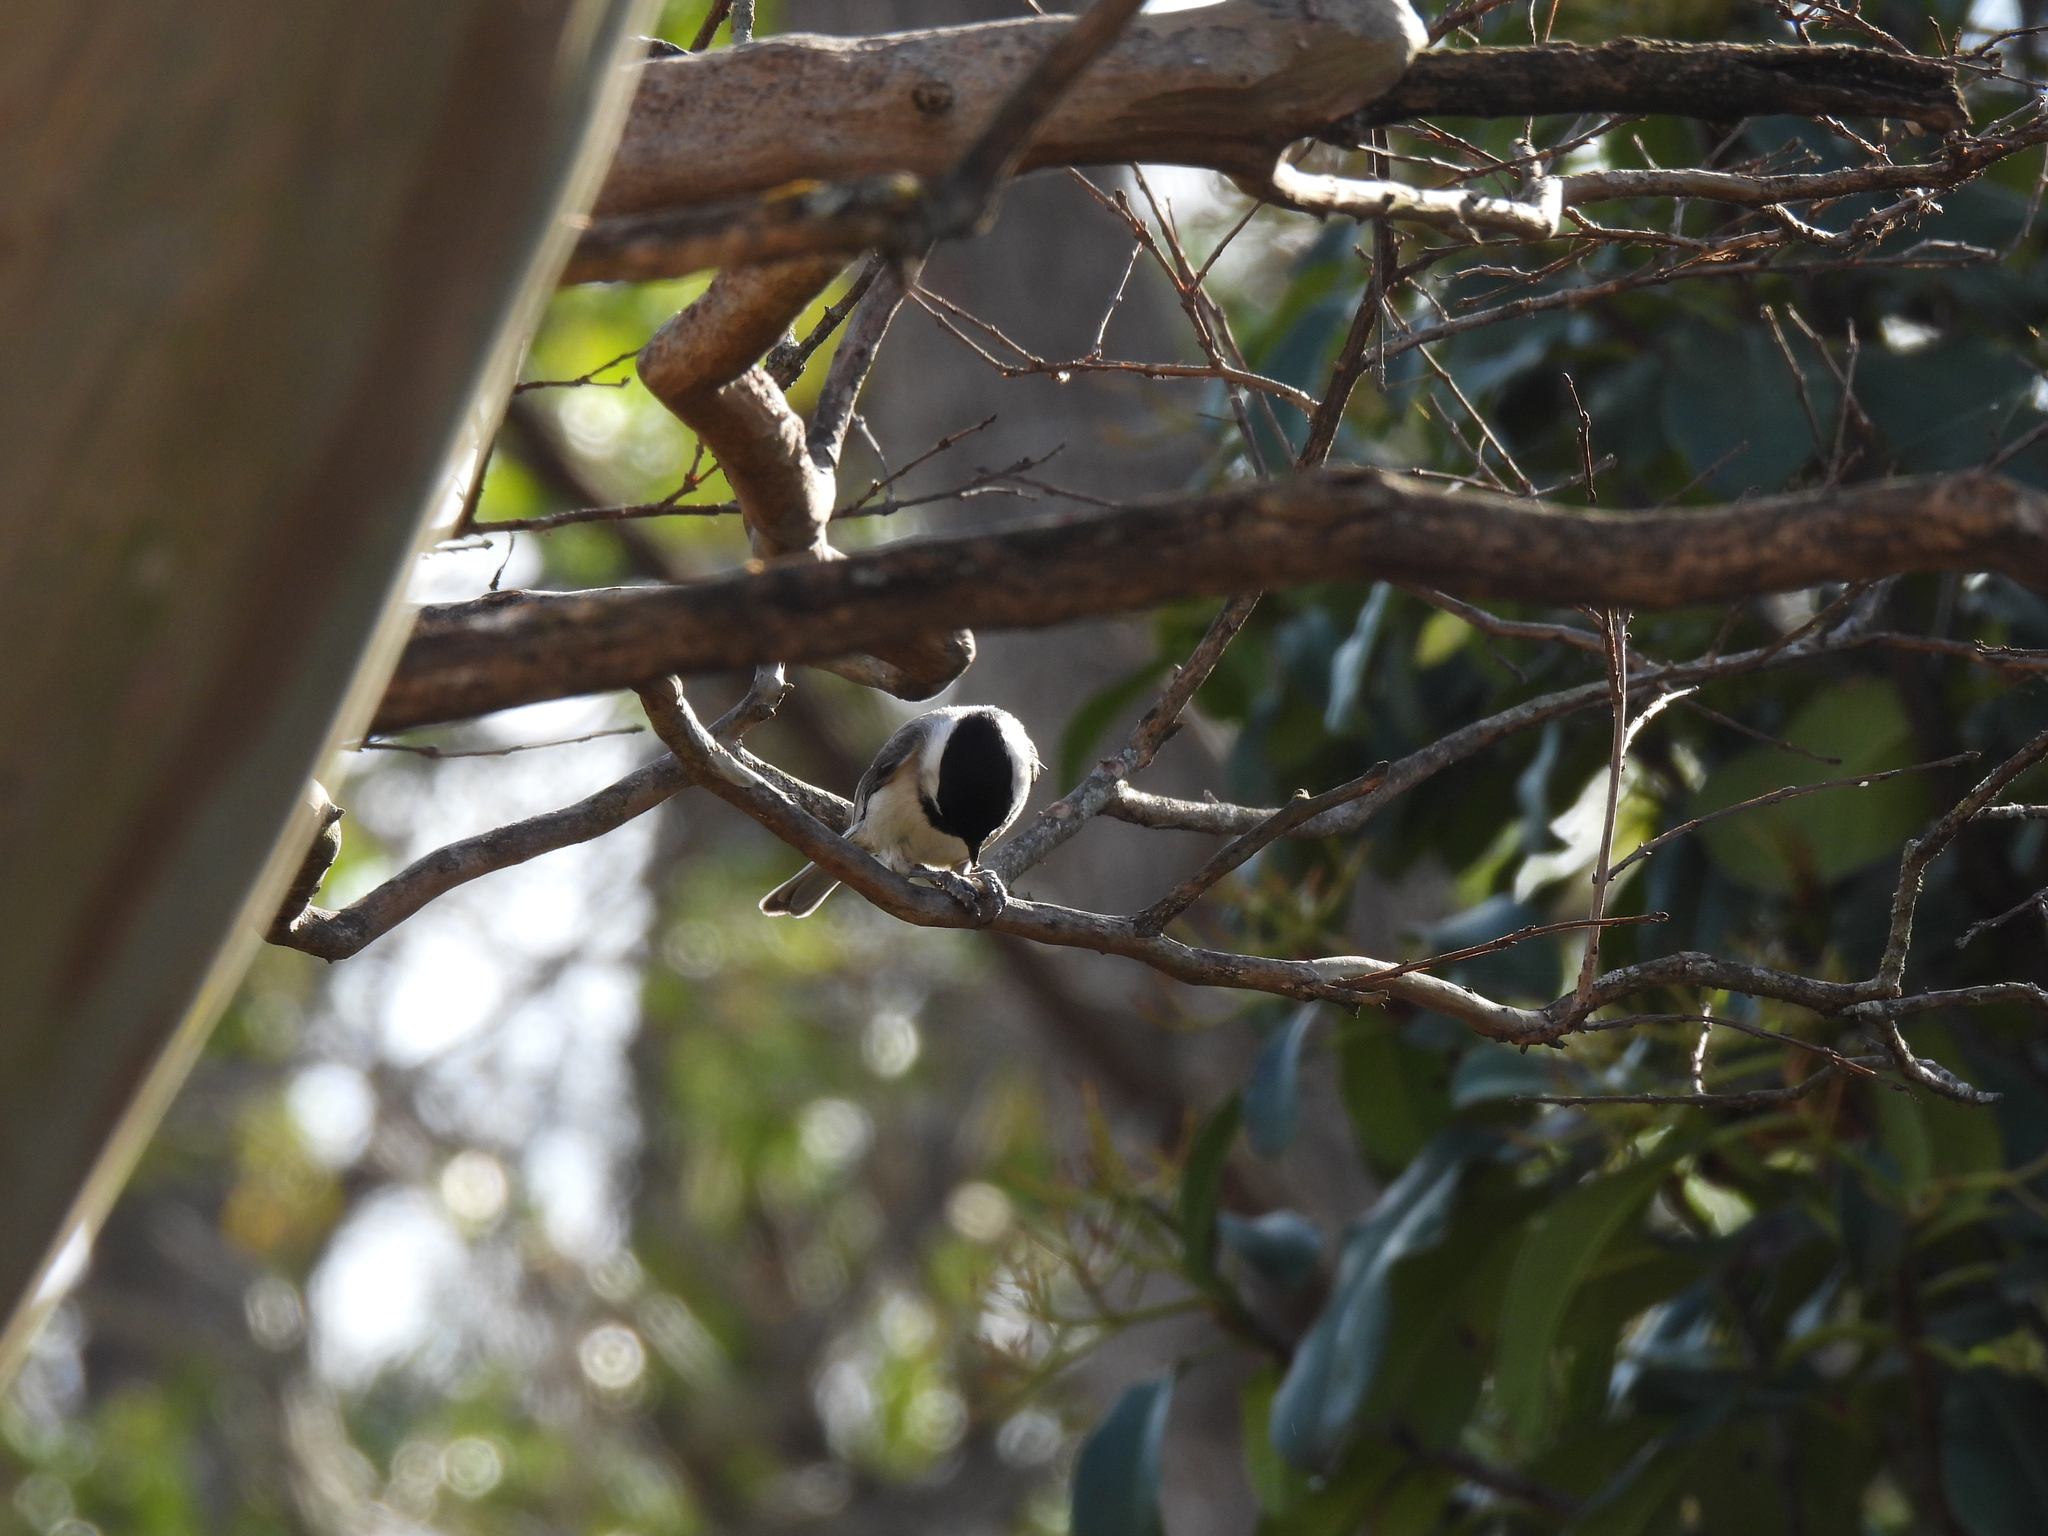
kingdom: Animalia
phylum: Chordata
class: Aves
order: Passeriformes
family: Paridae
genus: Poecile
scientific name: Poecile carolinensis
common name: Carolina chickadee
